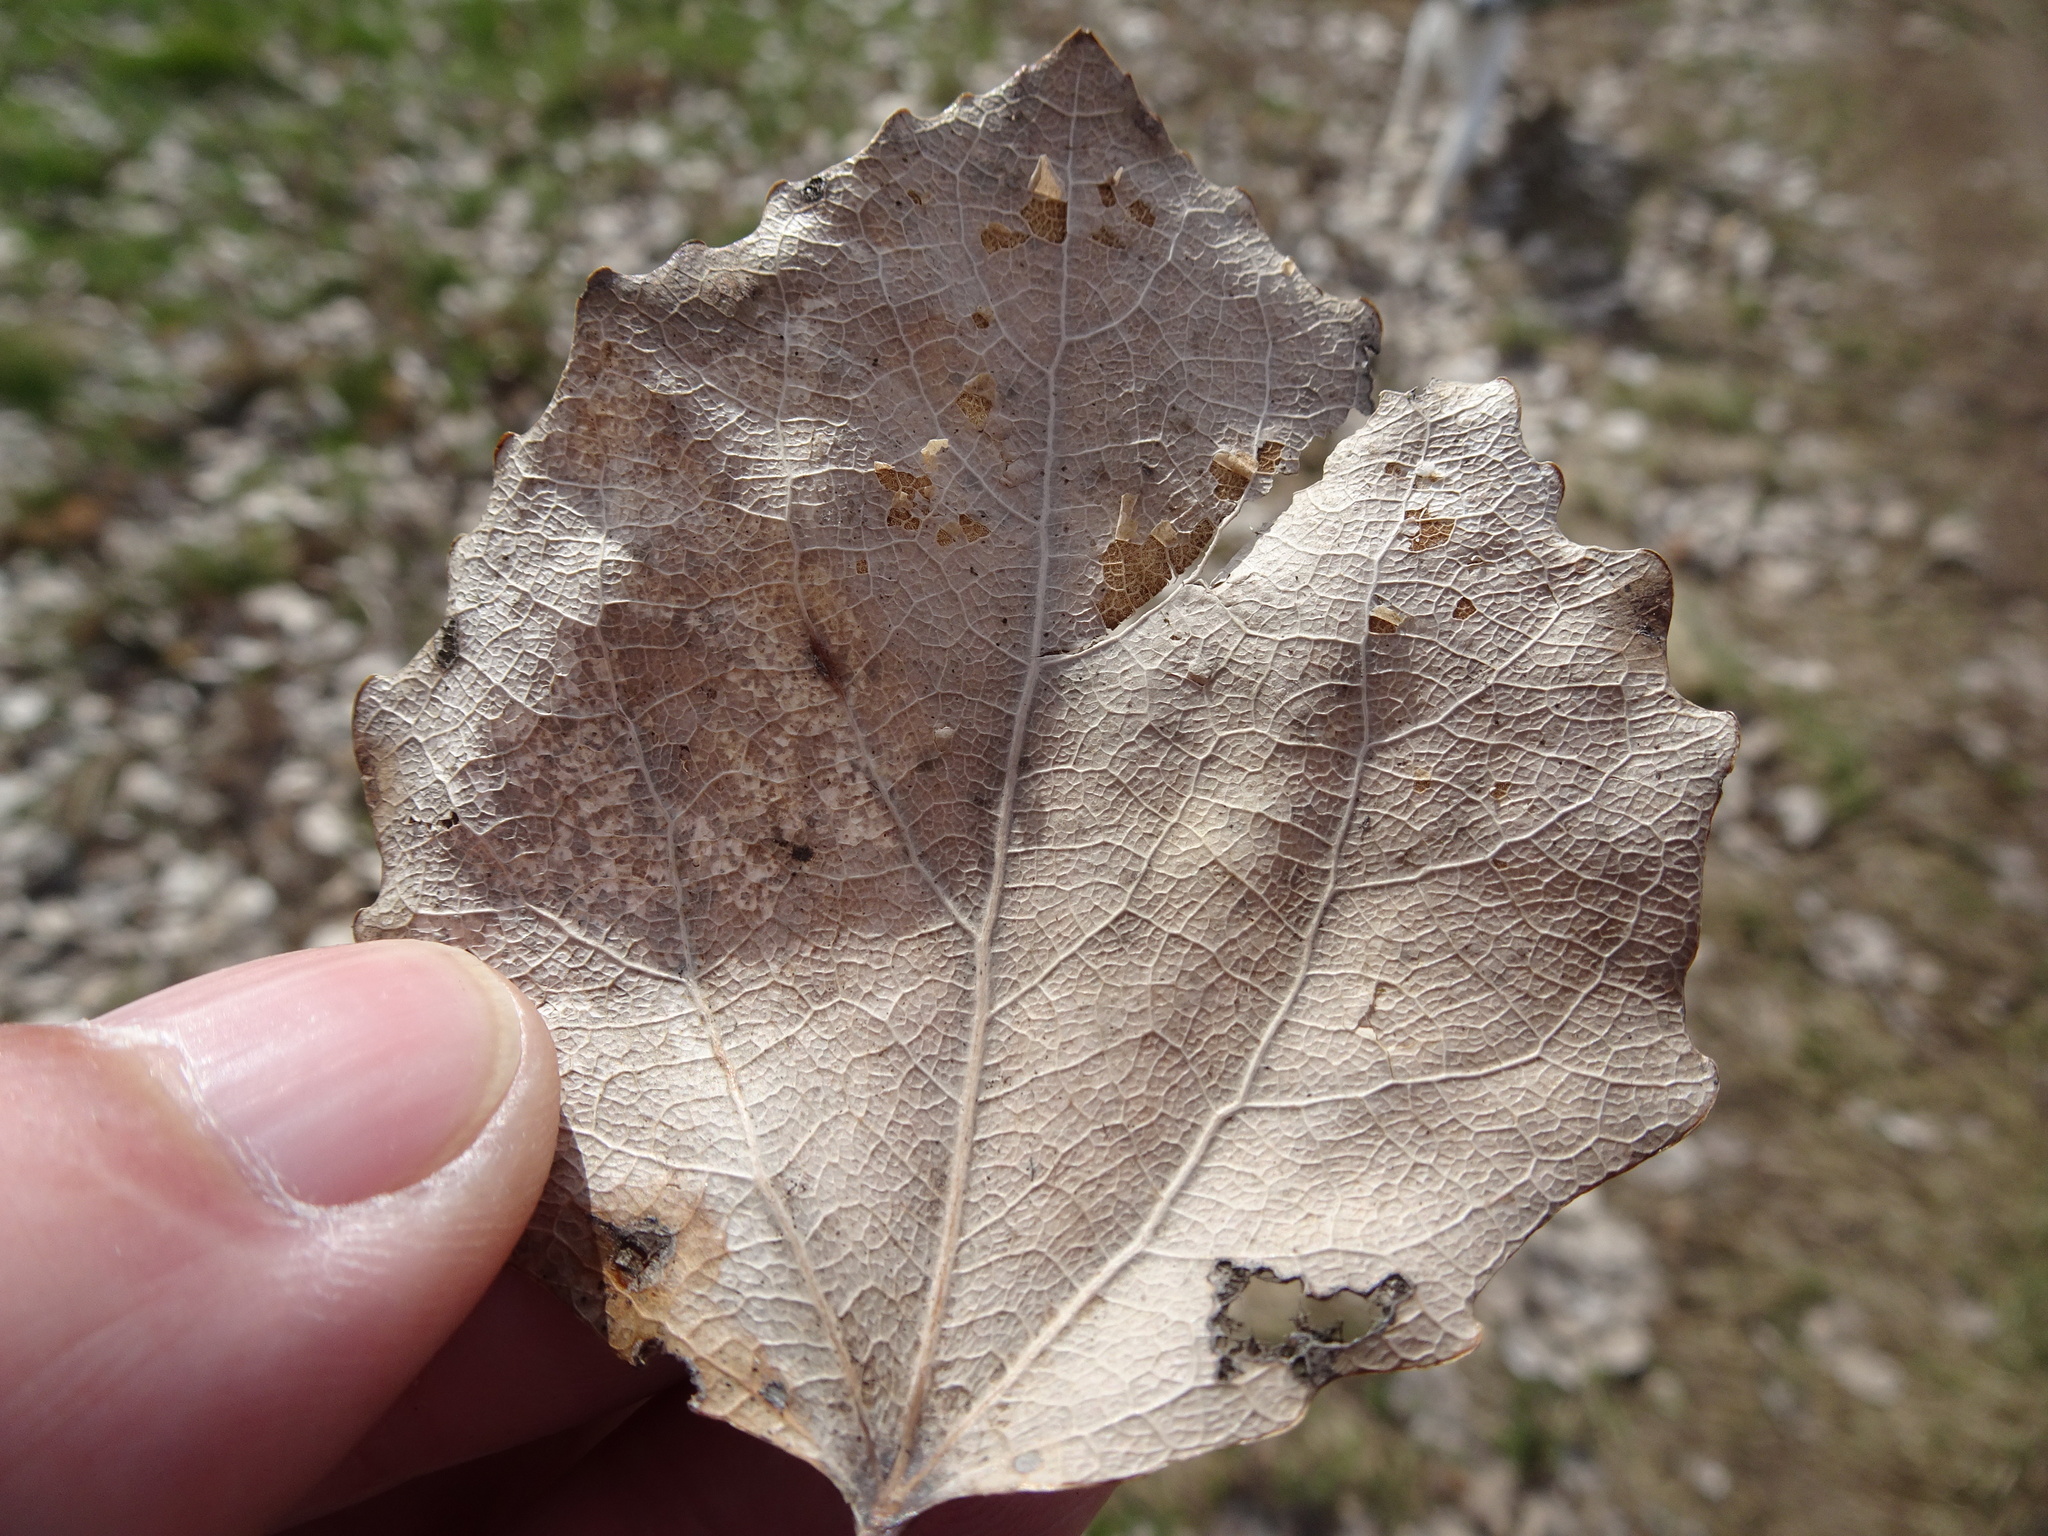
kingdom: Plantae
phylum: Tracheophyta
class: Magnoliopsida
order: Malpighiales
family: Salicaceae
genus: Populus
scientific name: Populus tremula
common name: European aspen
